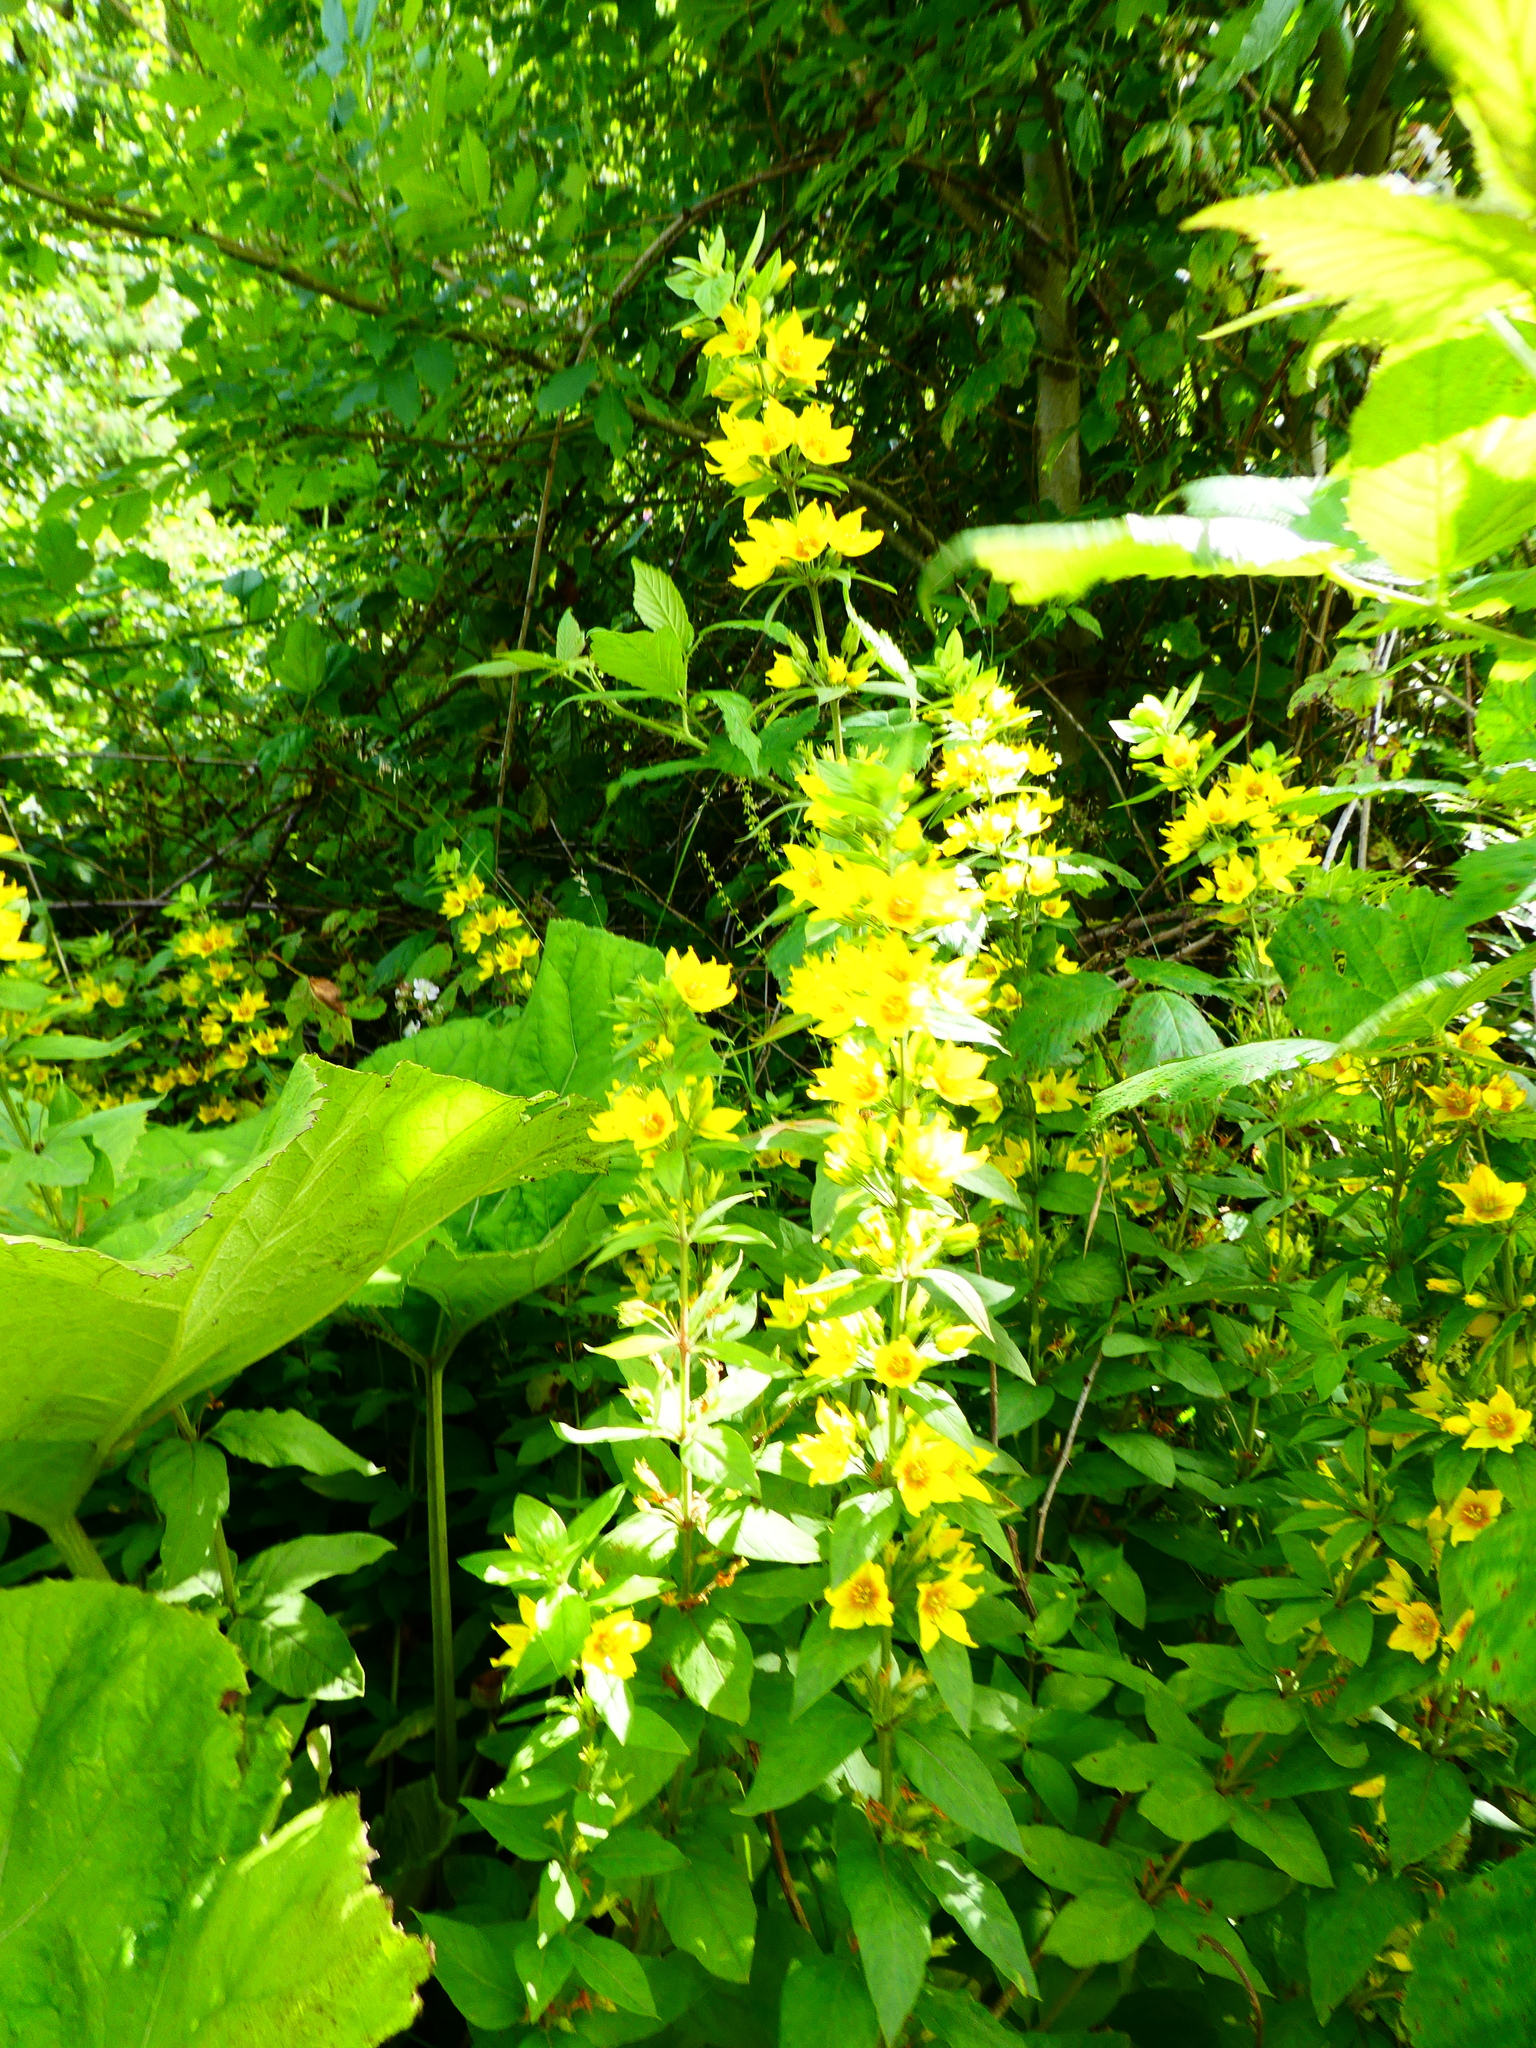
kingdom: Plantae
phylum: Tracheophyta
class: Magnoliopsida
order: Ericales
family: Primulaceae
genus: Lysimachia
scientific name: Lysimachia punctata
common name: Dotted loosestrife
